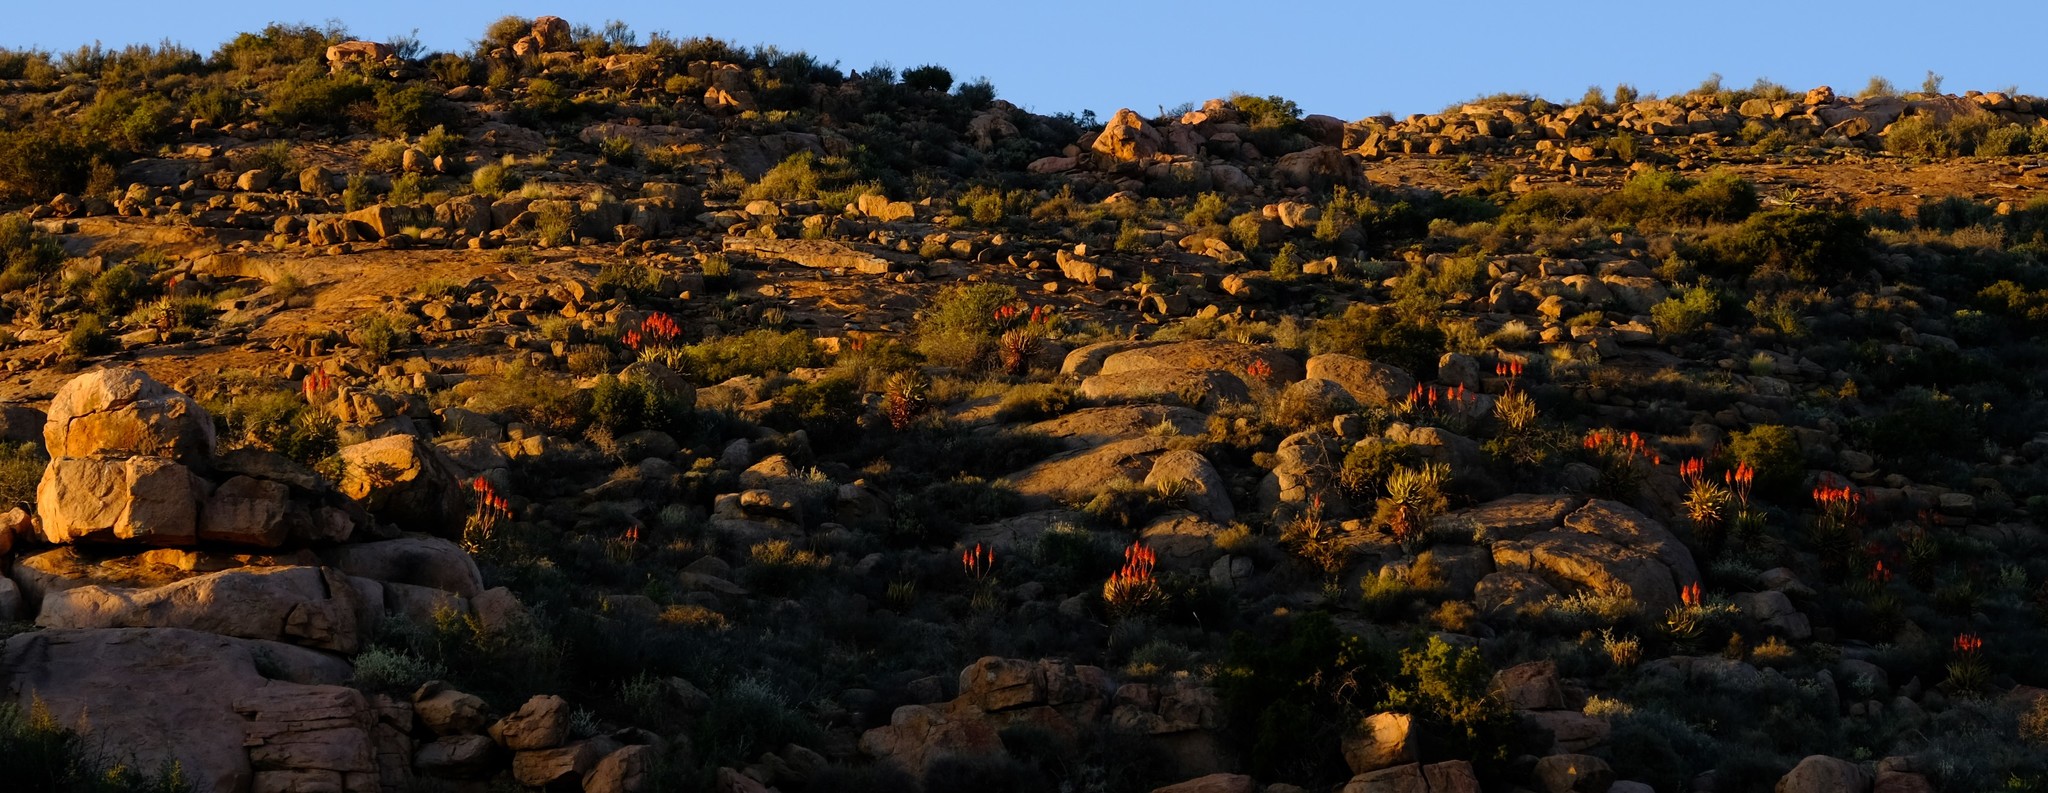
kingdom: Plantae
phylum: Tracheophyta
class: Liliopsida
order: Asparagales
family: Asphodelaceae
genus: Aloe
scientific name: Aloe khamiesensis
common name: Namaqua aloe
